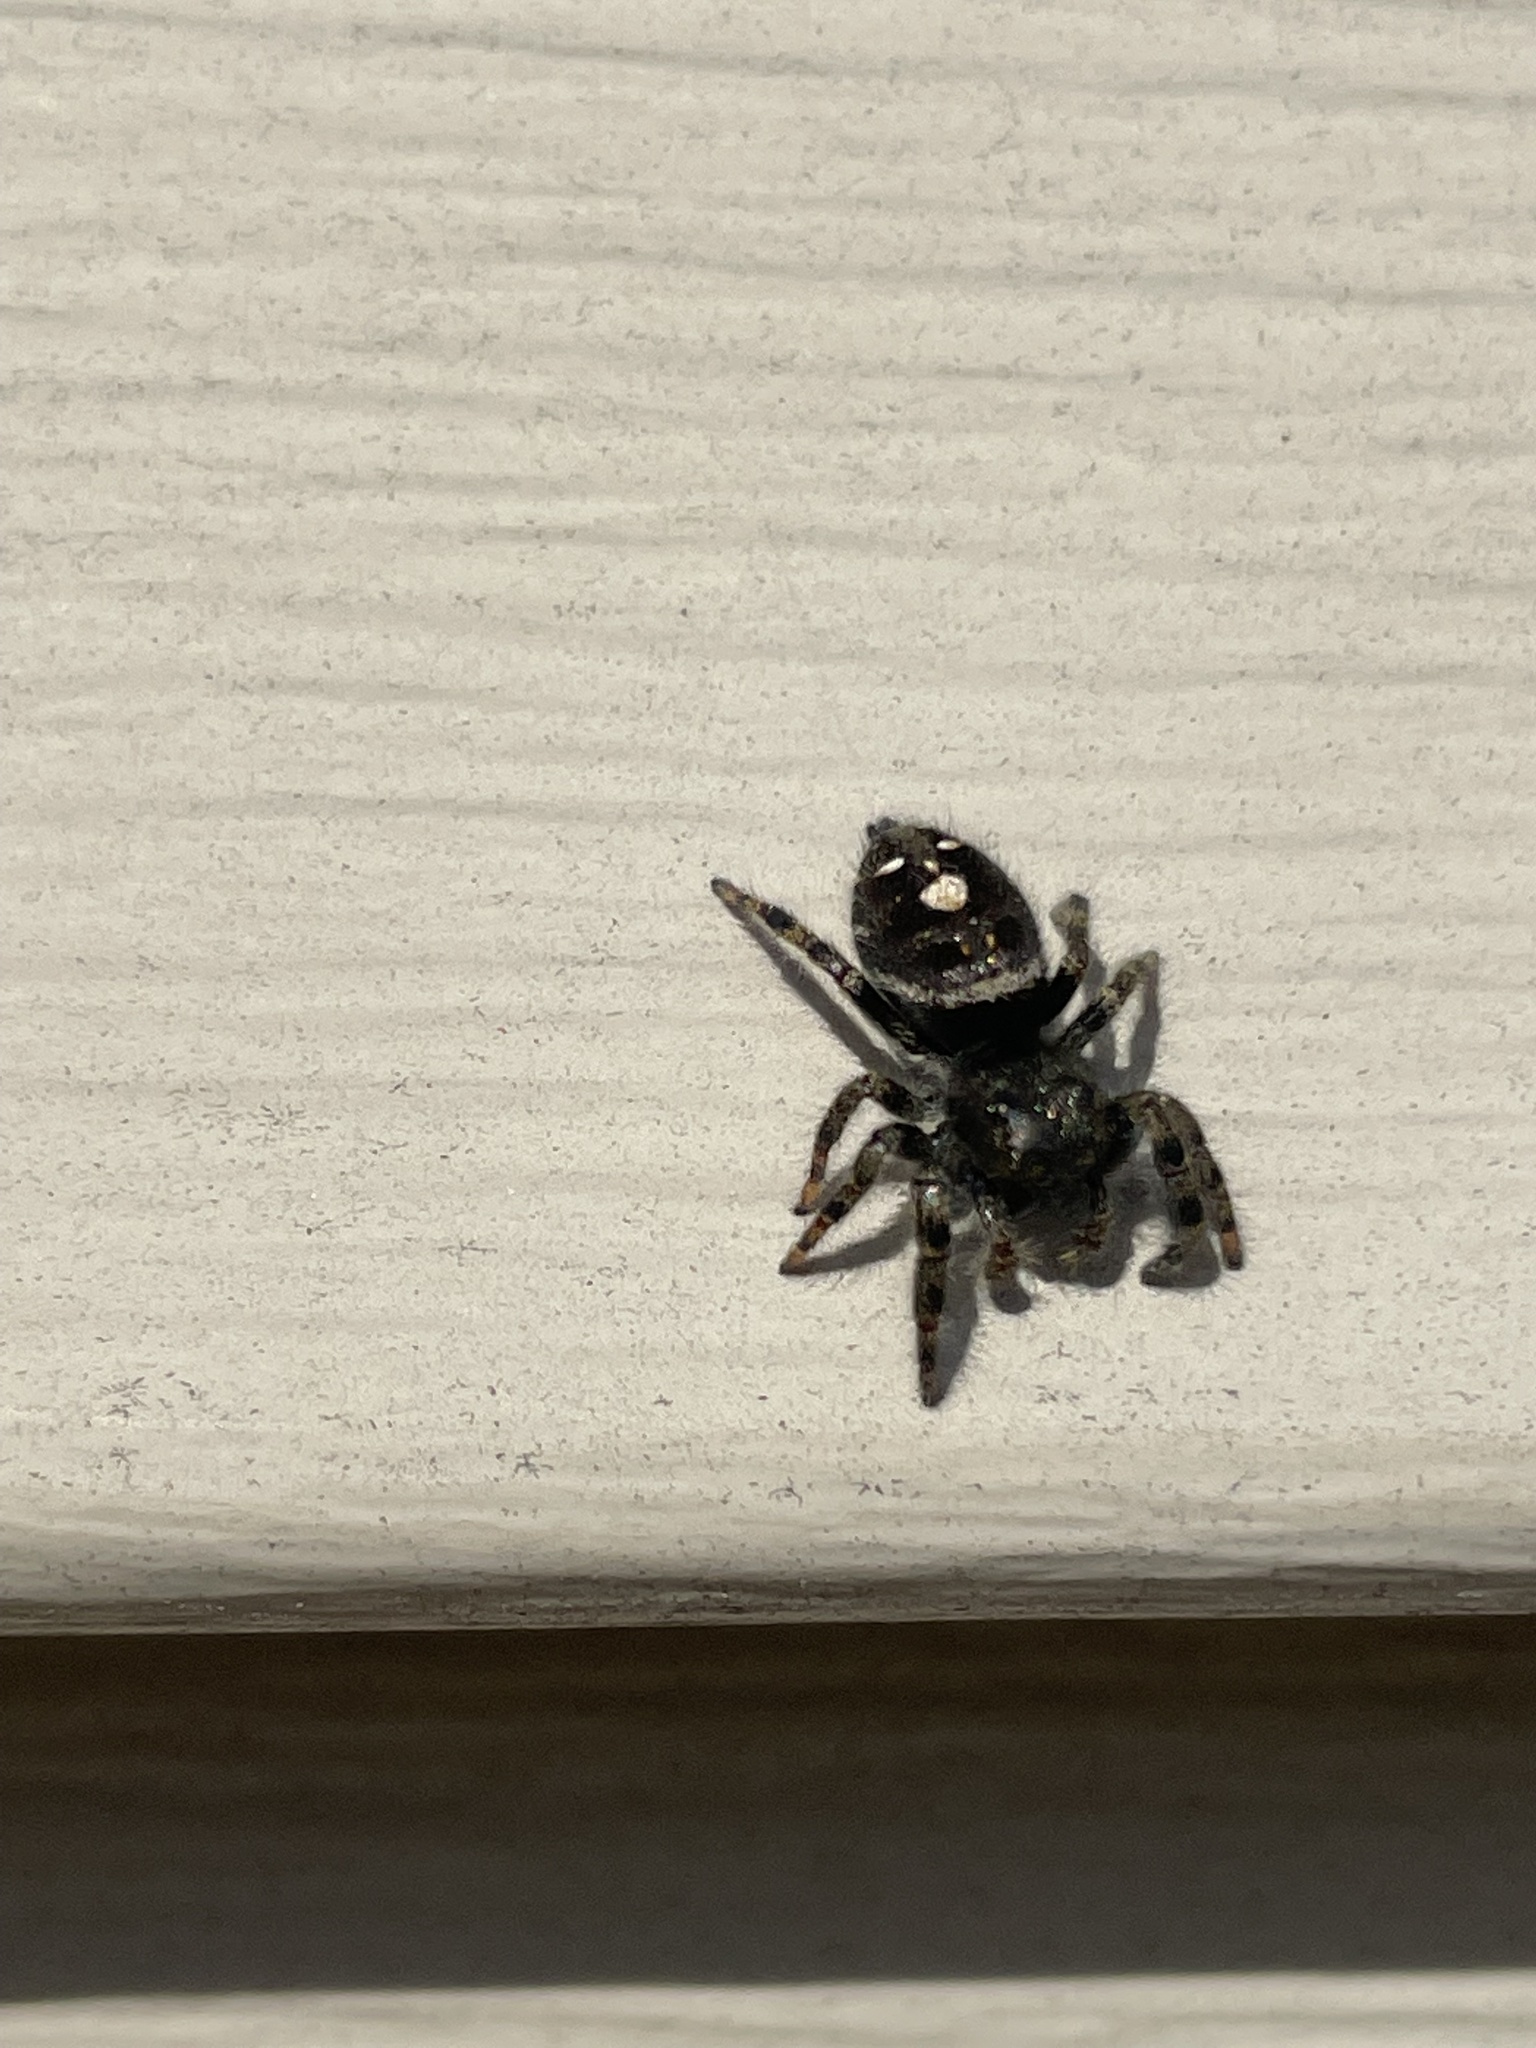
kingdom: Animalia
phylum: Arthropoda
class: Arachnida
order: Araneae
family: Salticidae
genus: Phidippus
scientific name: Phidippus audax
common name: Bold jumper
